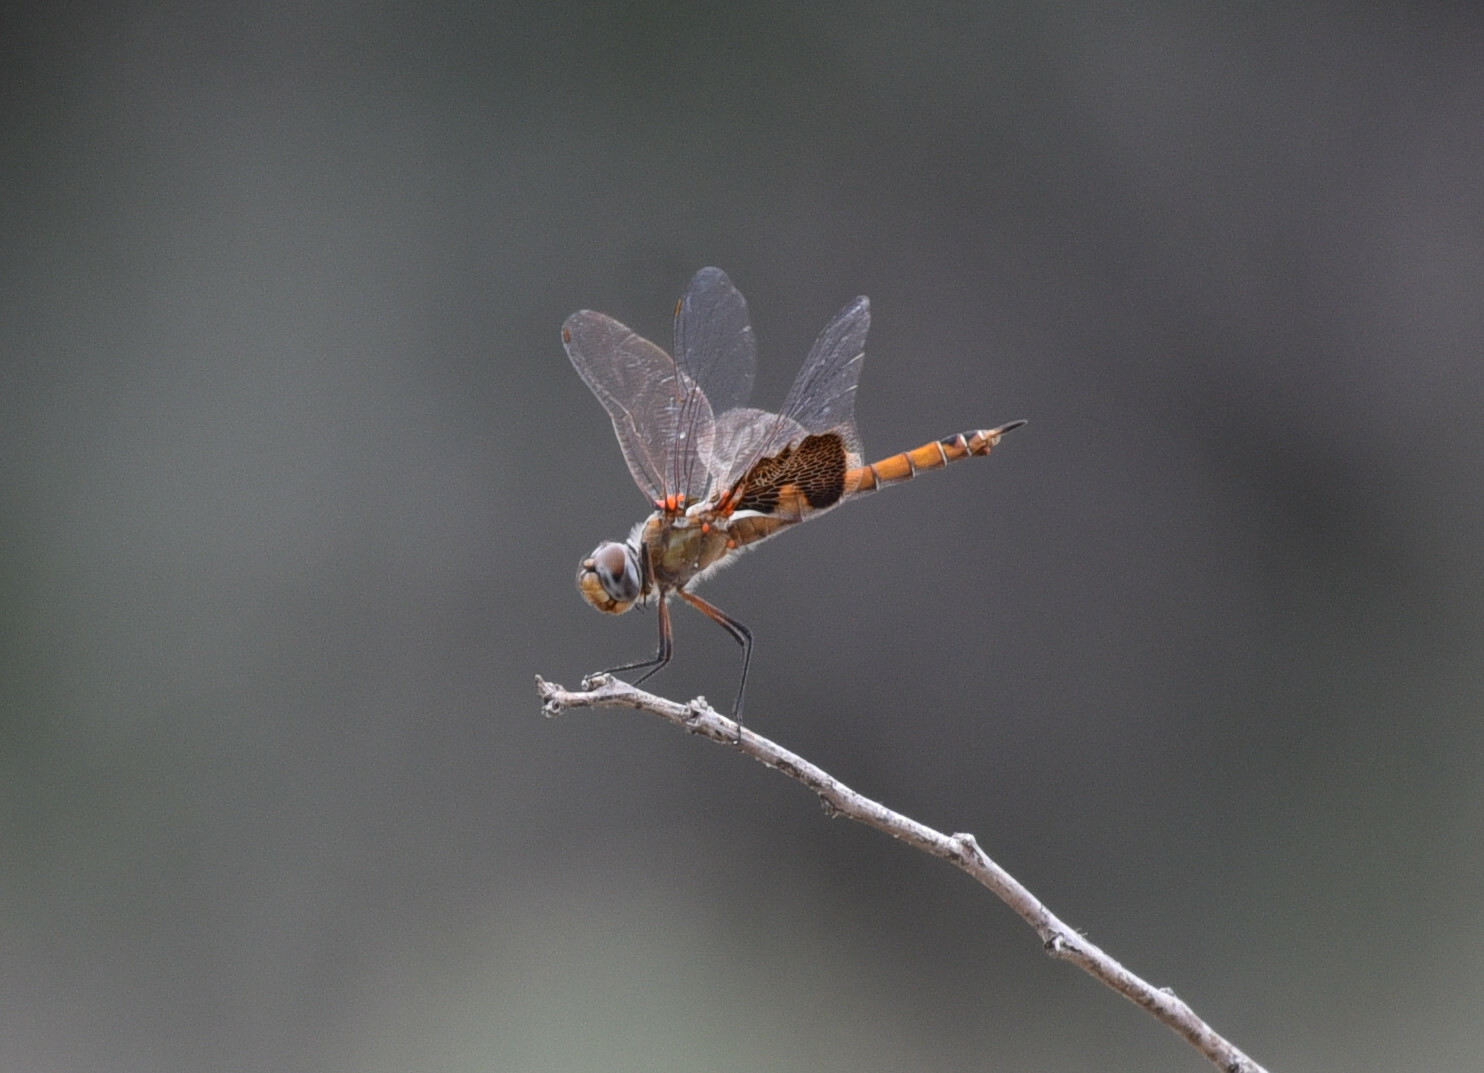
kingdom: Animalia
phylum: Arthropoda
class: Insecta
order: Odonata
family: Libellulidae
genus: Tramea
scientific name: Tramea onusta
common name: Red saddlebags
